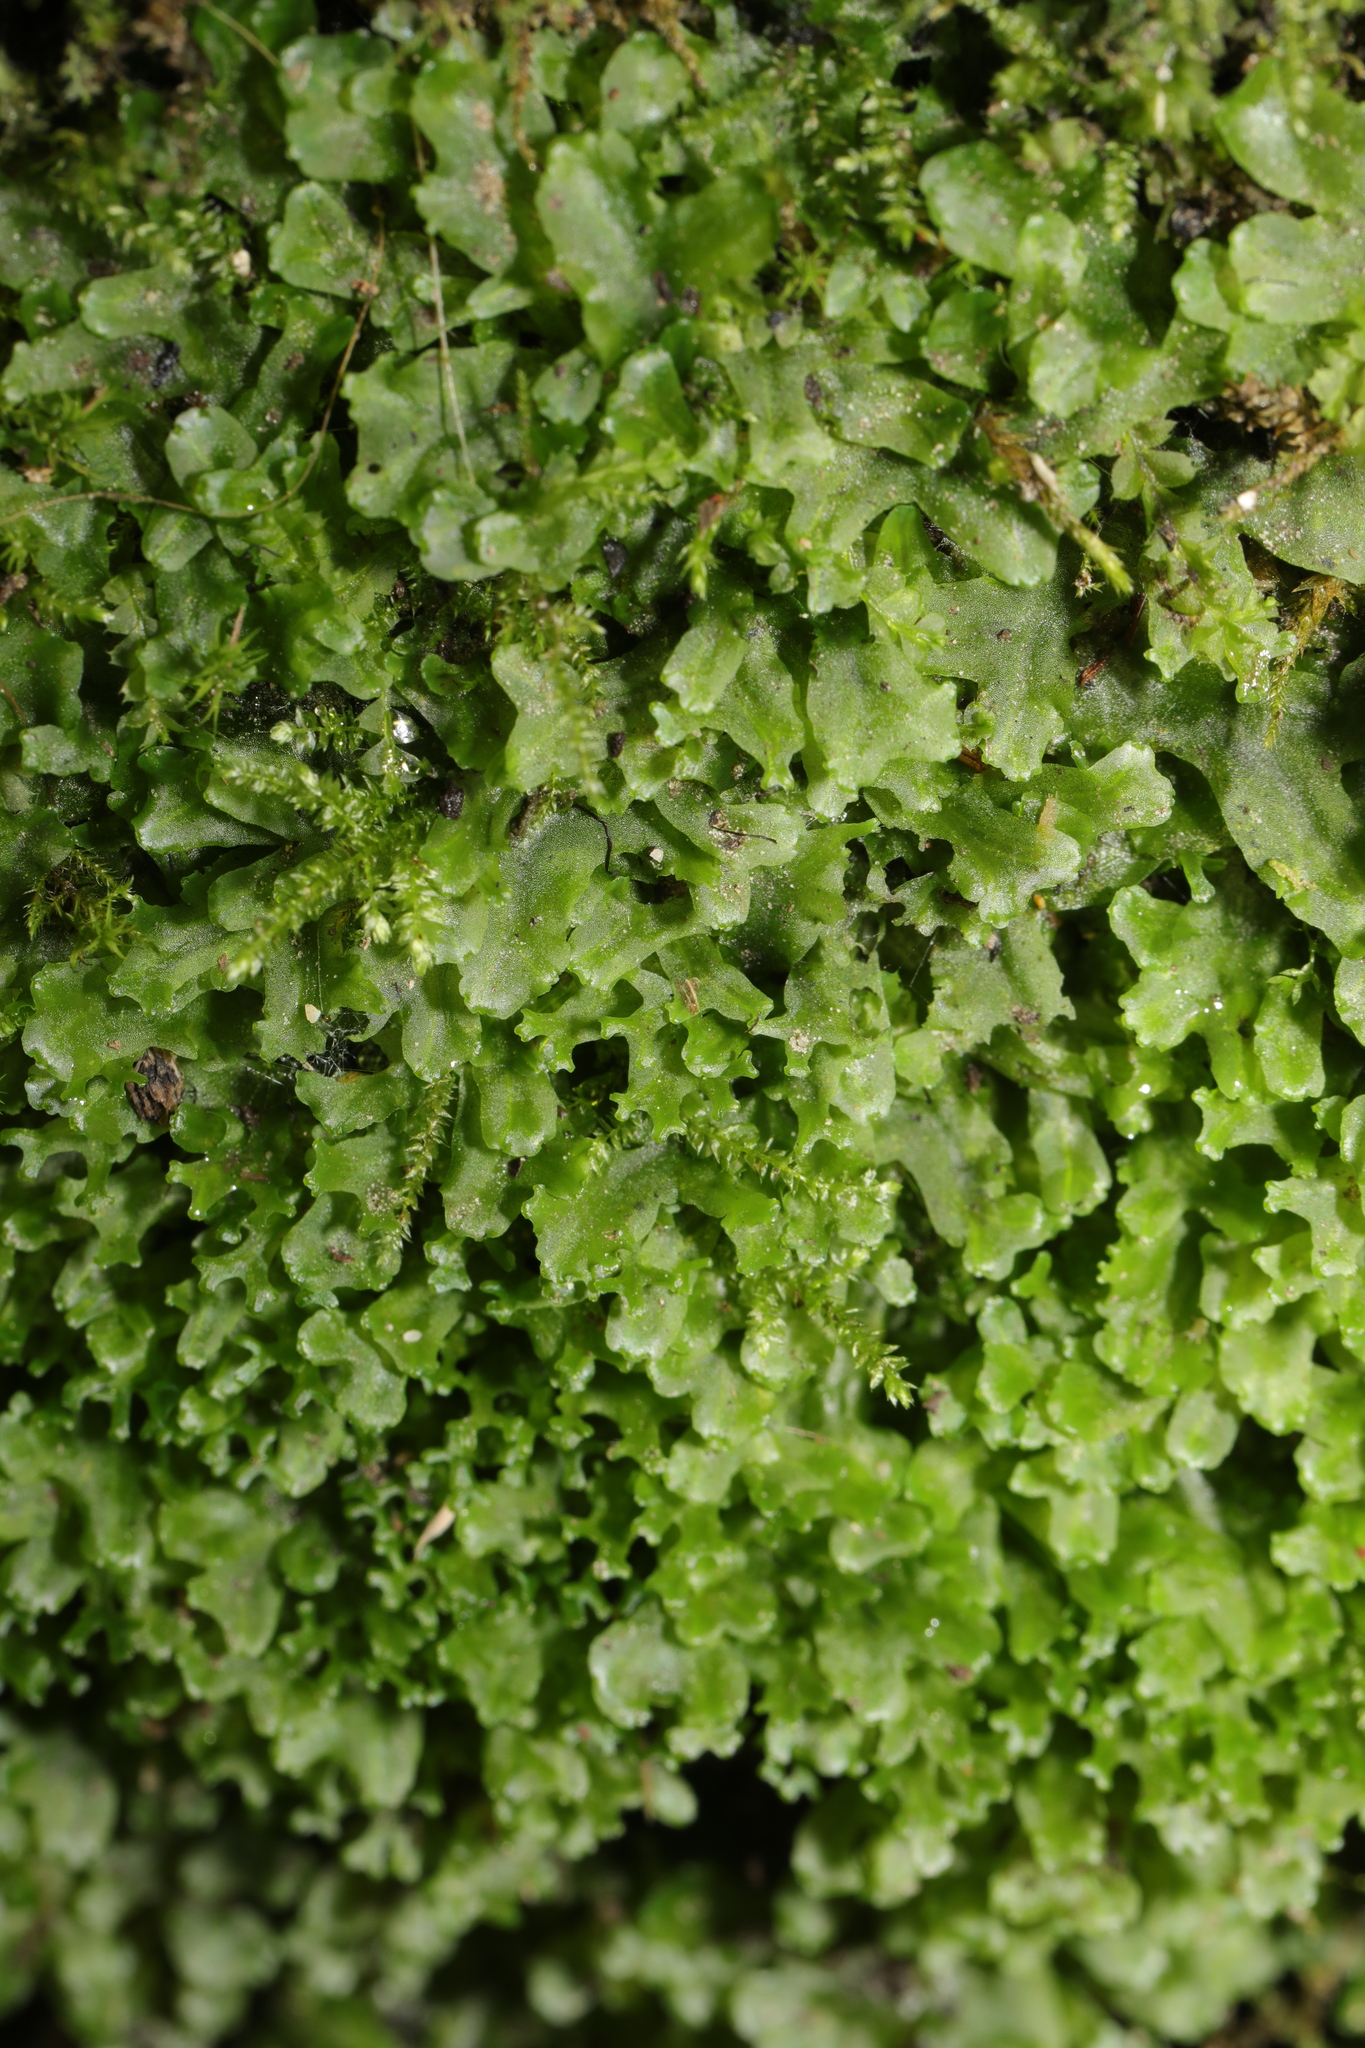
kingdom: Plantae
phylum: Marchantiophyta
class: Jungermanniopsida
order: Pelliales
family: Pelliaceae
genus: Apopellia
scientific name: Apopellia endiviifolia
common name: Endive pellia
